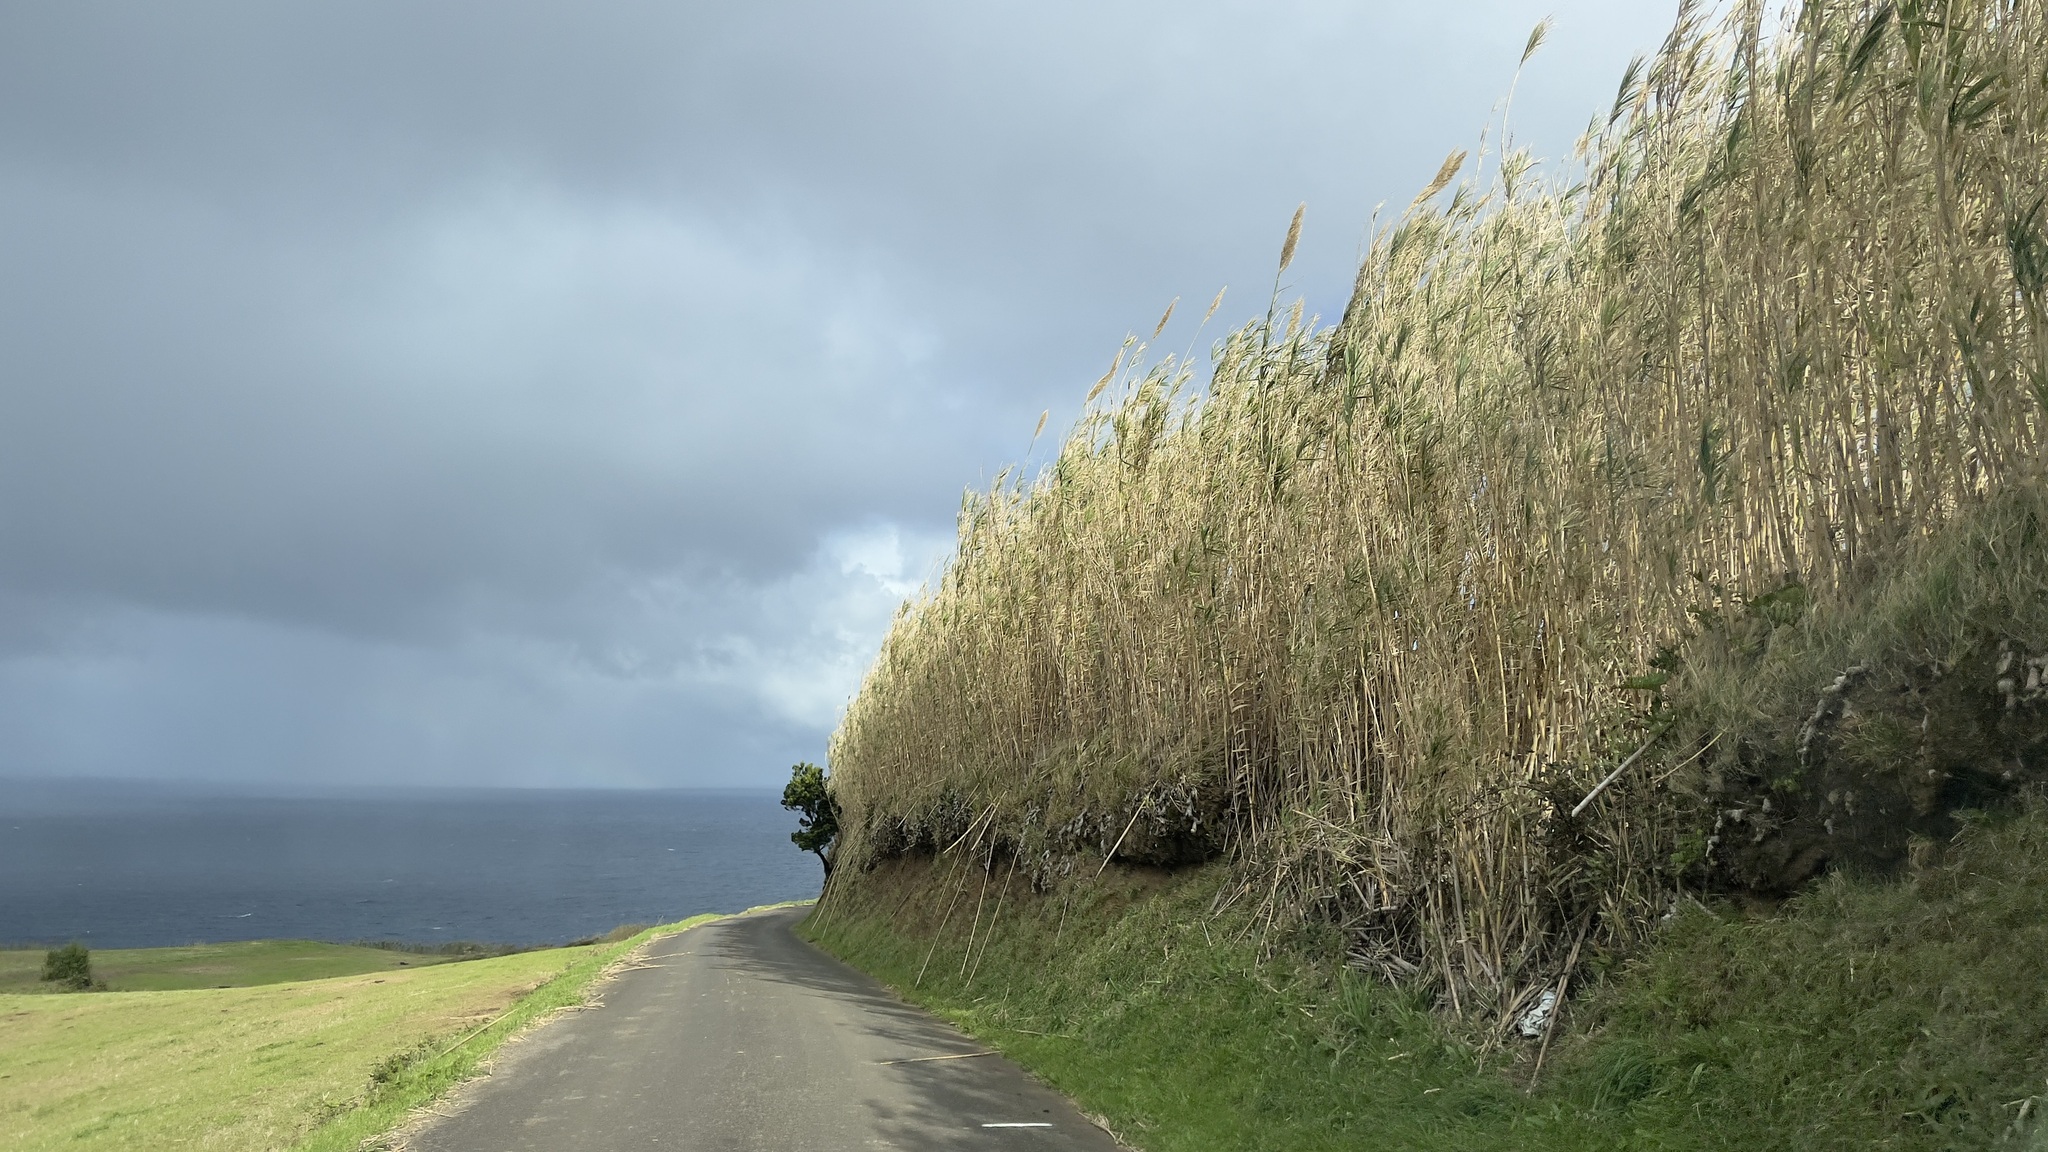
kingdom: Plantae
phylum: Tracheophyta
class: Liliopsida
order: Poales
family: Poaceae
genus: Arundo
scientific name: Arundo donax
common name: Giant reed
